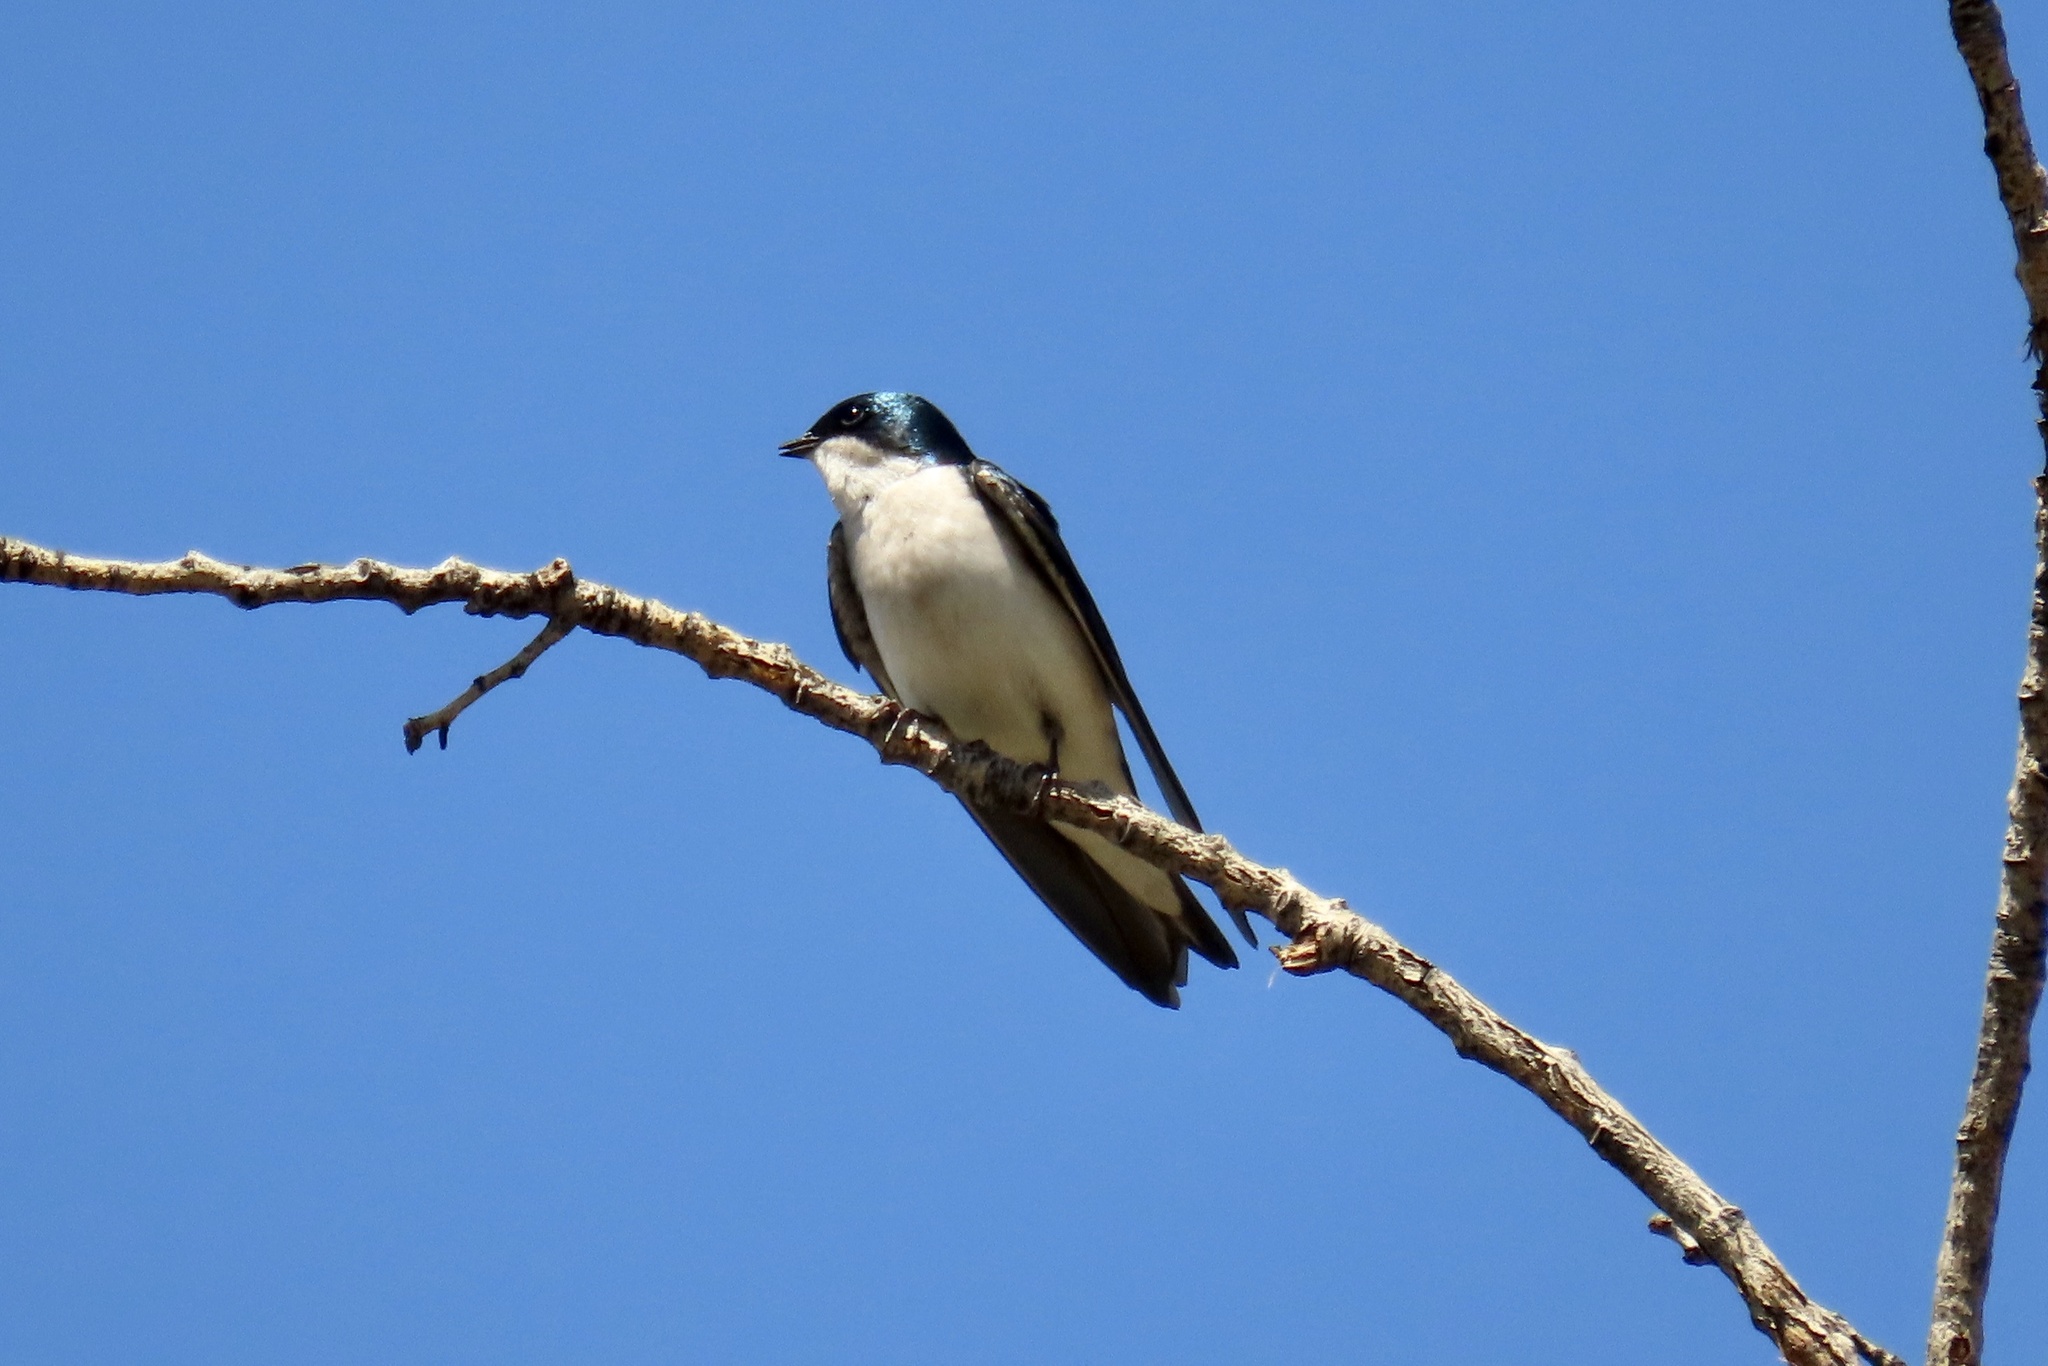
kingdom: Animalia
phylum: Chordata
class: Aves
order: Passeriformes
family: Hirundinidae
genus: Tachycineta
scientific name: Tachycineta bicolor
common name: Tree swallow
